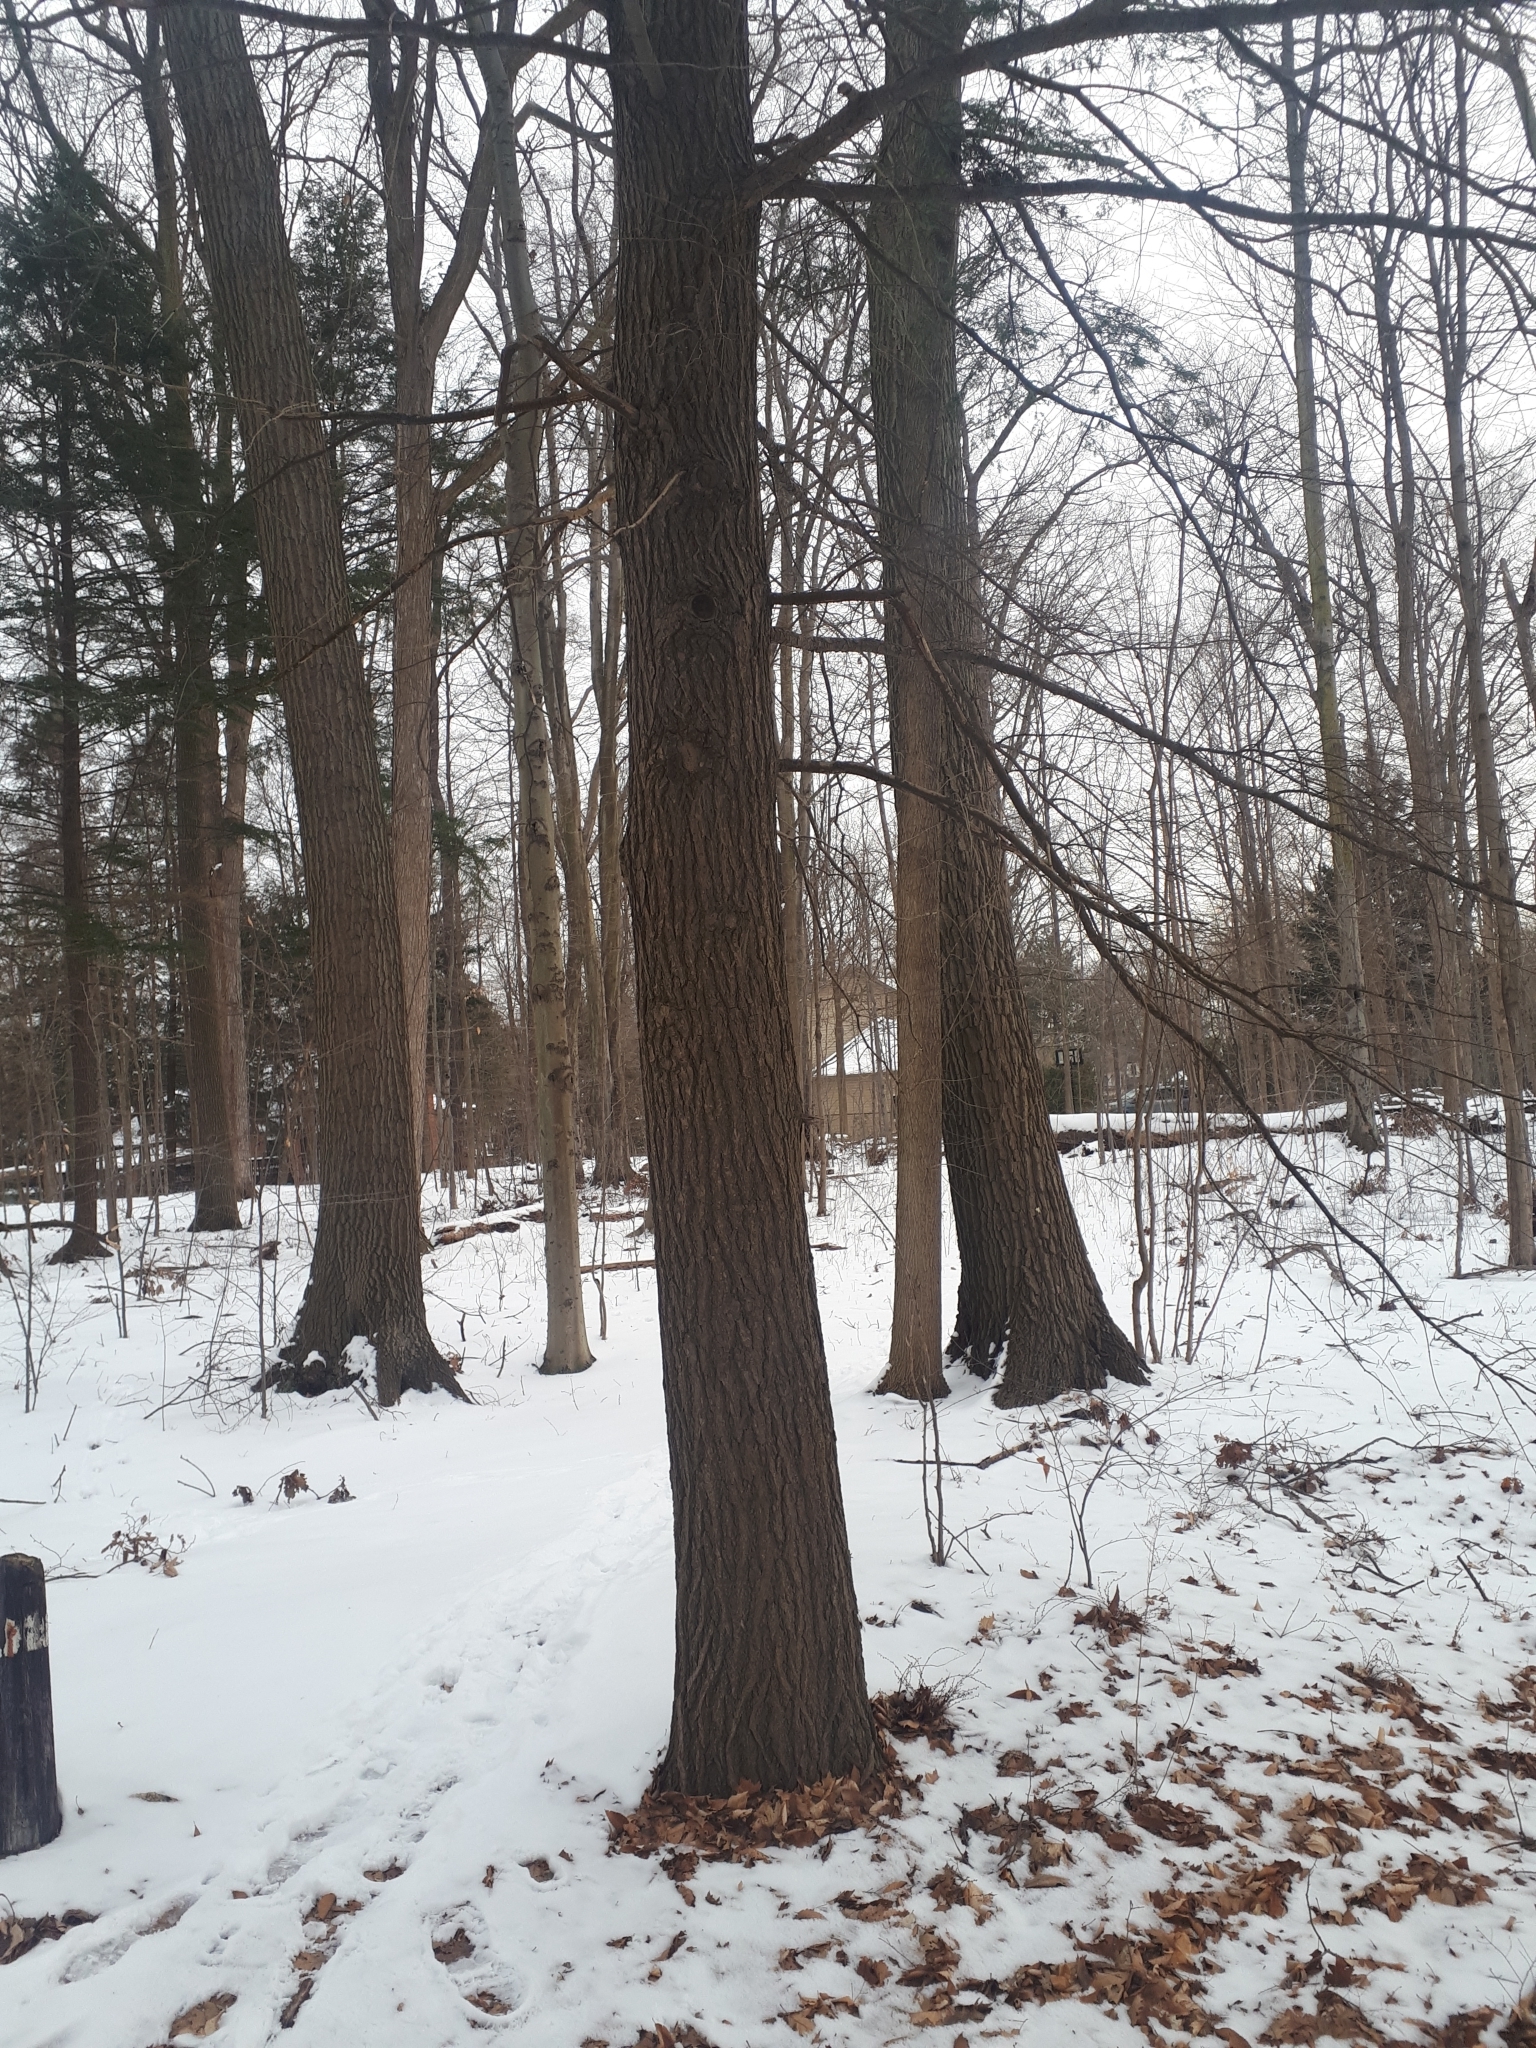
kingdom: Plantae
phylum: Tracheophyta
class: Pinopsida
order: Pinales
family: Pinaceae
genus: Tsuga
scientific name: Tsuga canadensis
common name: Eastern hemlock
